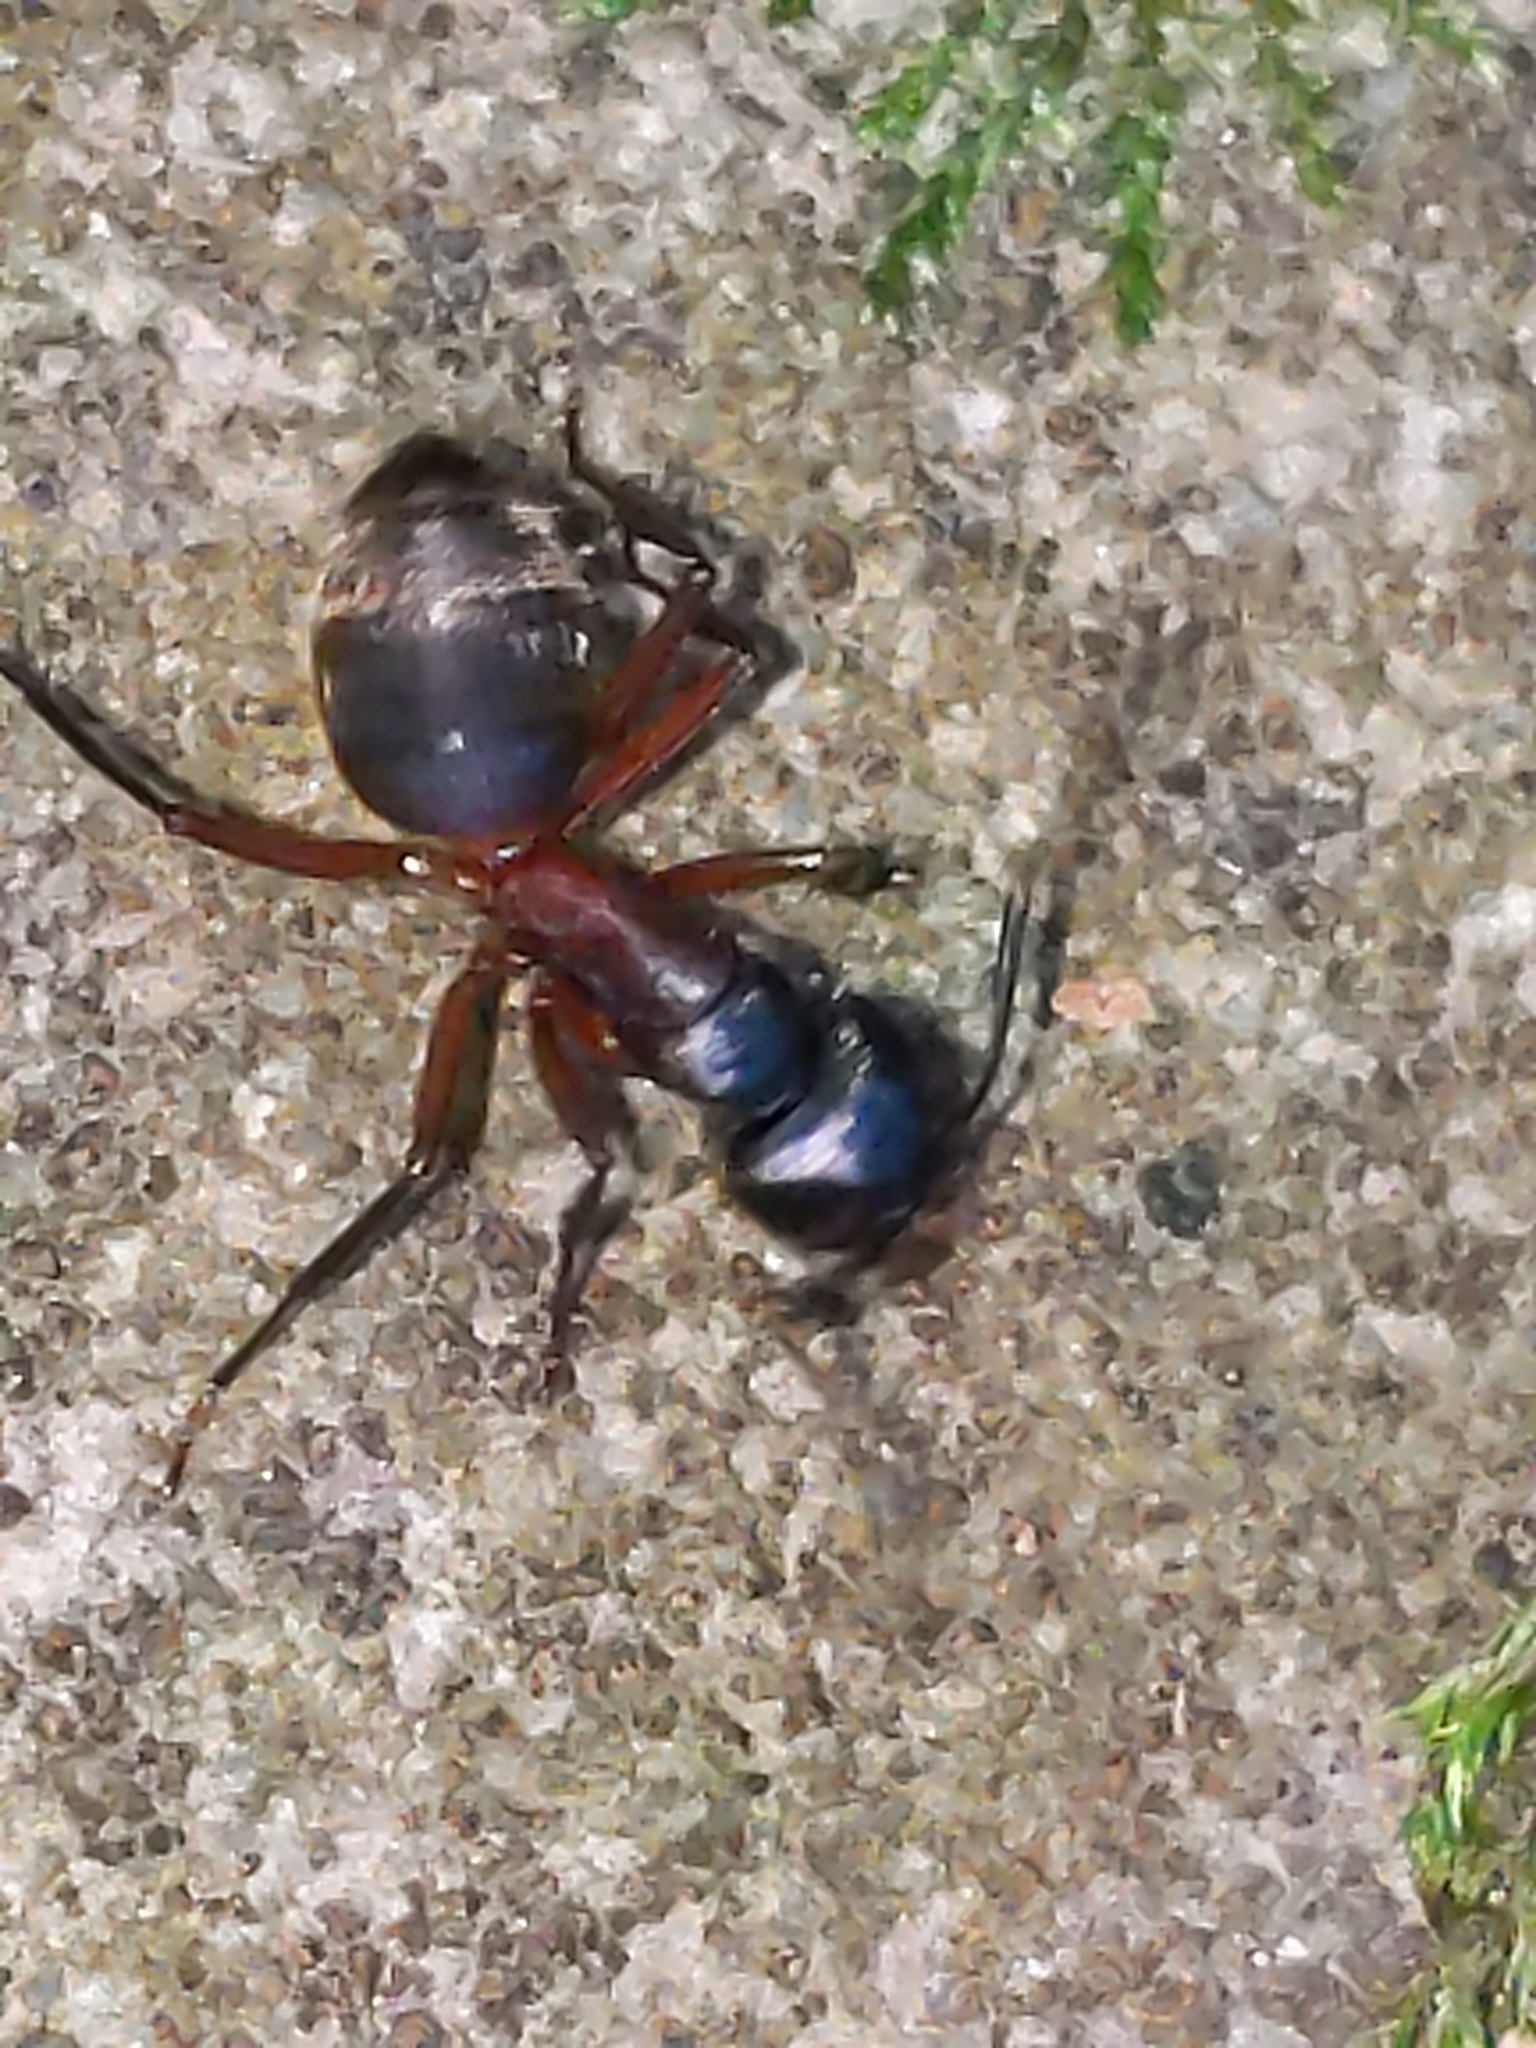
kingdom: Animalia
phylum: Arthropoda
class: Insecta
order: Hymenoptera
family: Formicidae
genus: Camponotus
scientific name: Camponotus chromaiodes
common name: Red carpenter ant
